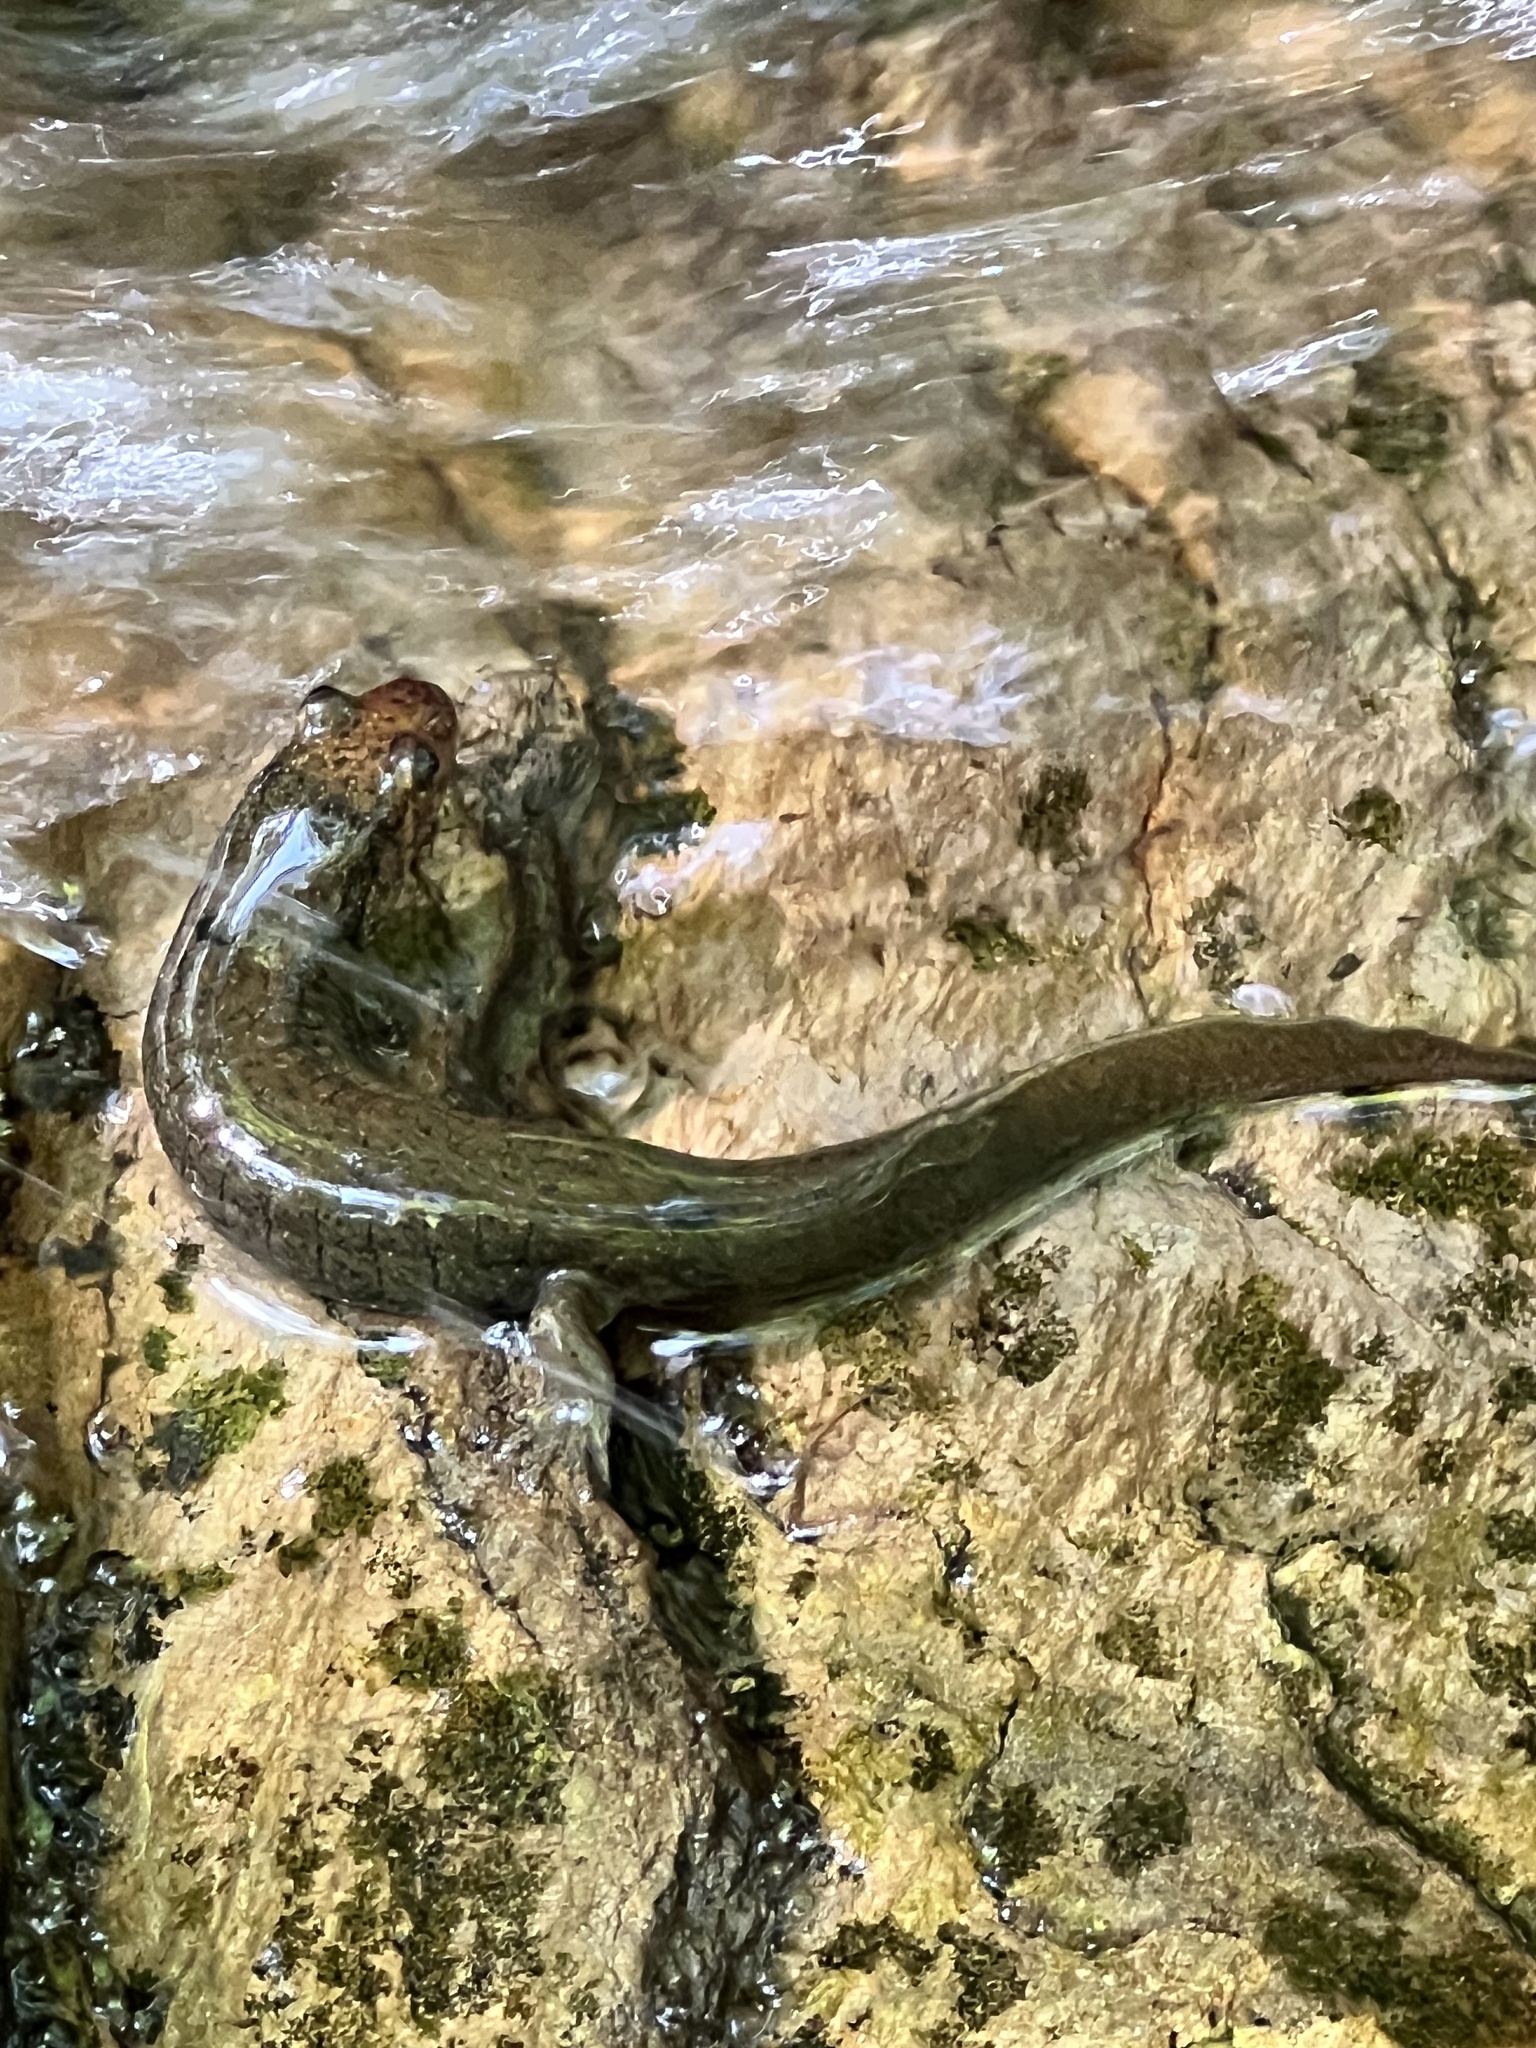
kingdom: Animalia
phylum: Chordata
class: Amphibia
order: Caudata
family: Plethodontidae
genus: Desmognathus
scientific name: Desmognathus
